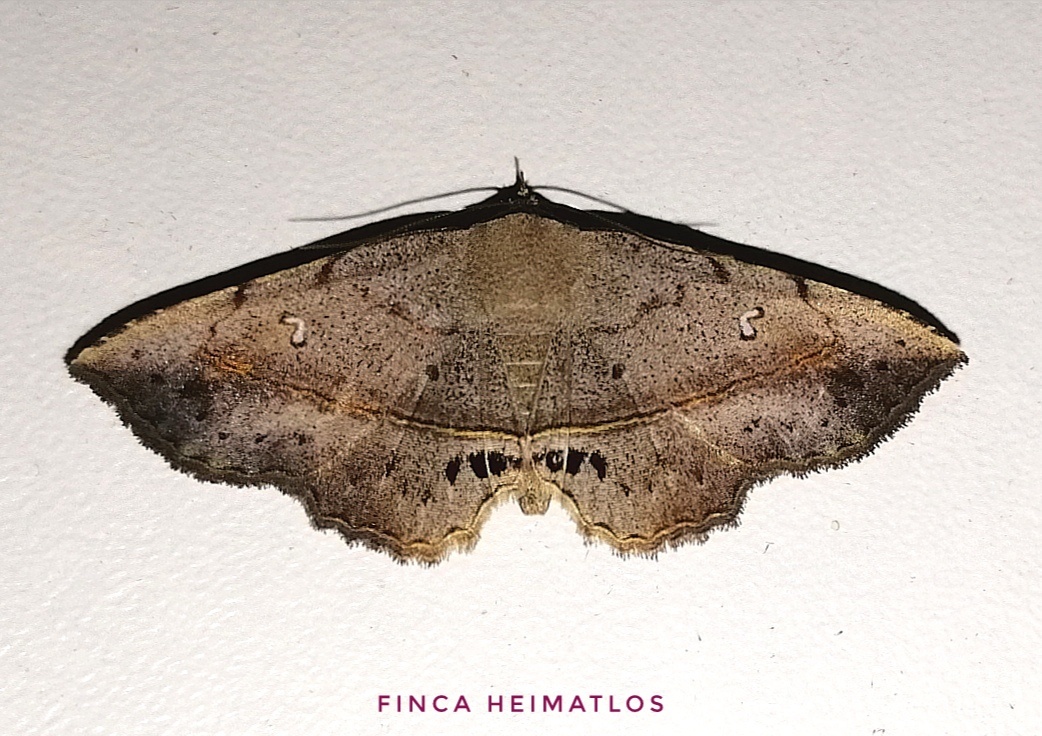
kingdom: Animalia
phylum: Arthropoda
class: Insecta
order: Lepidoptera
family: Erebidae
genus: Renodes
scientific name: Renodes vulgaris
